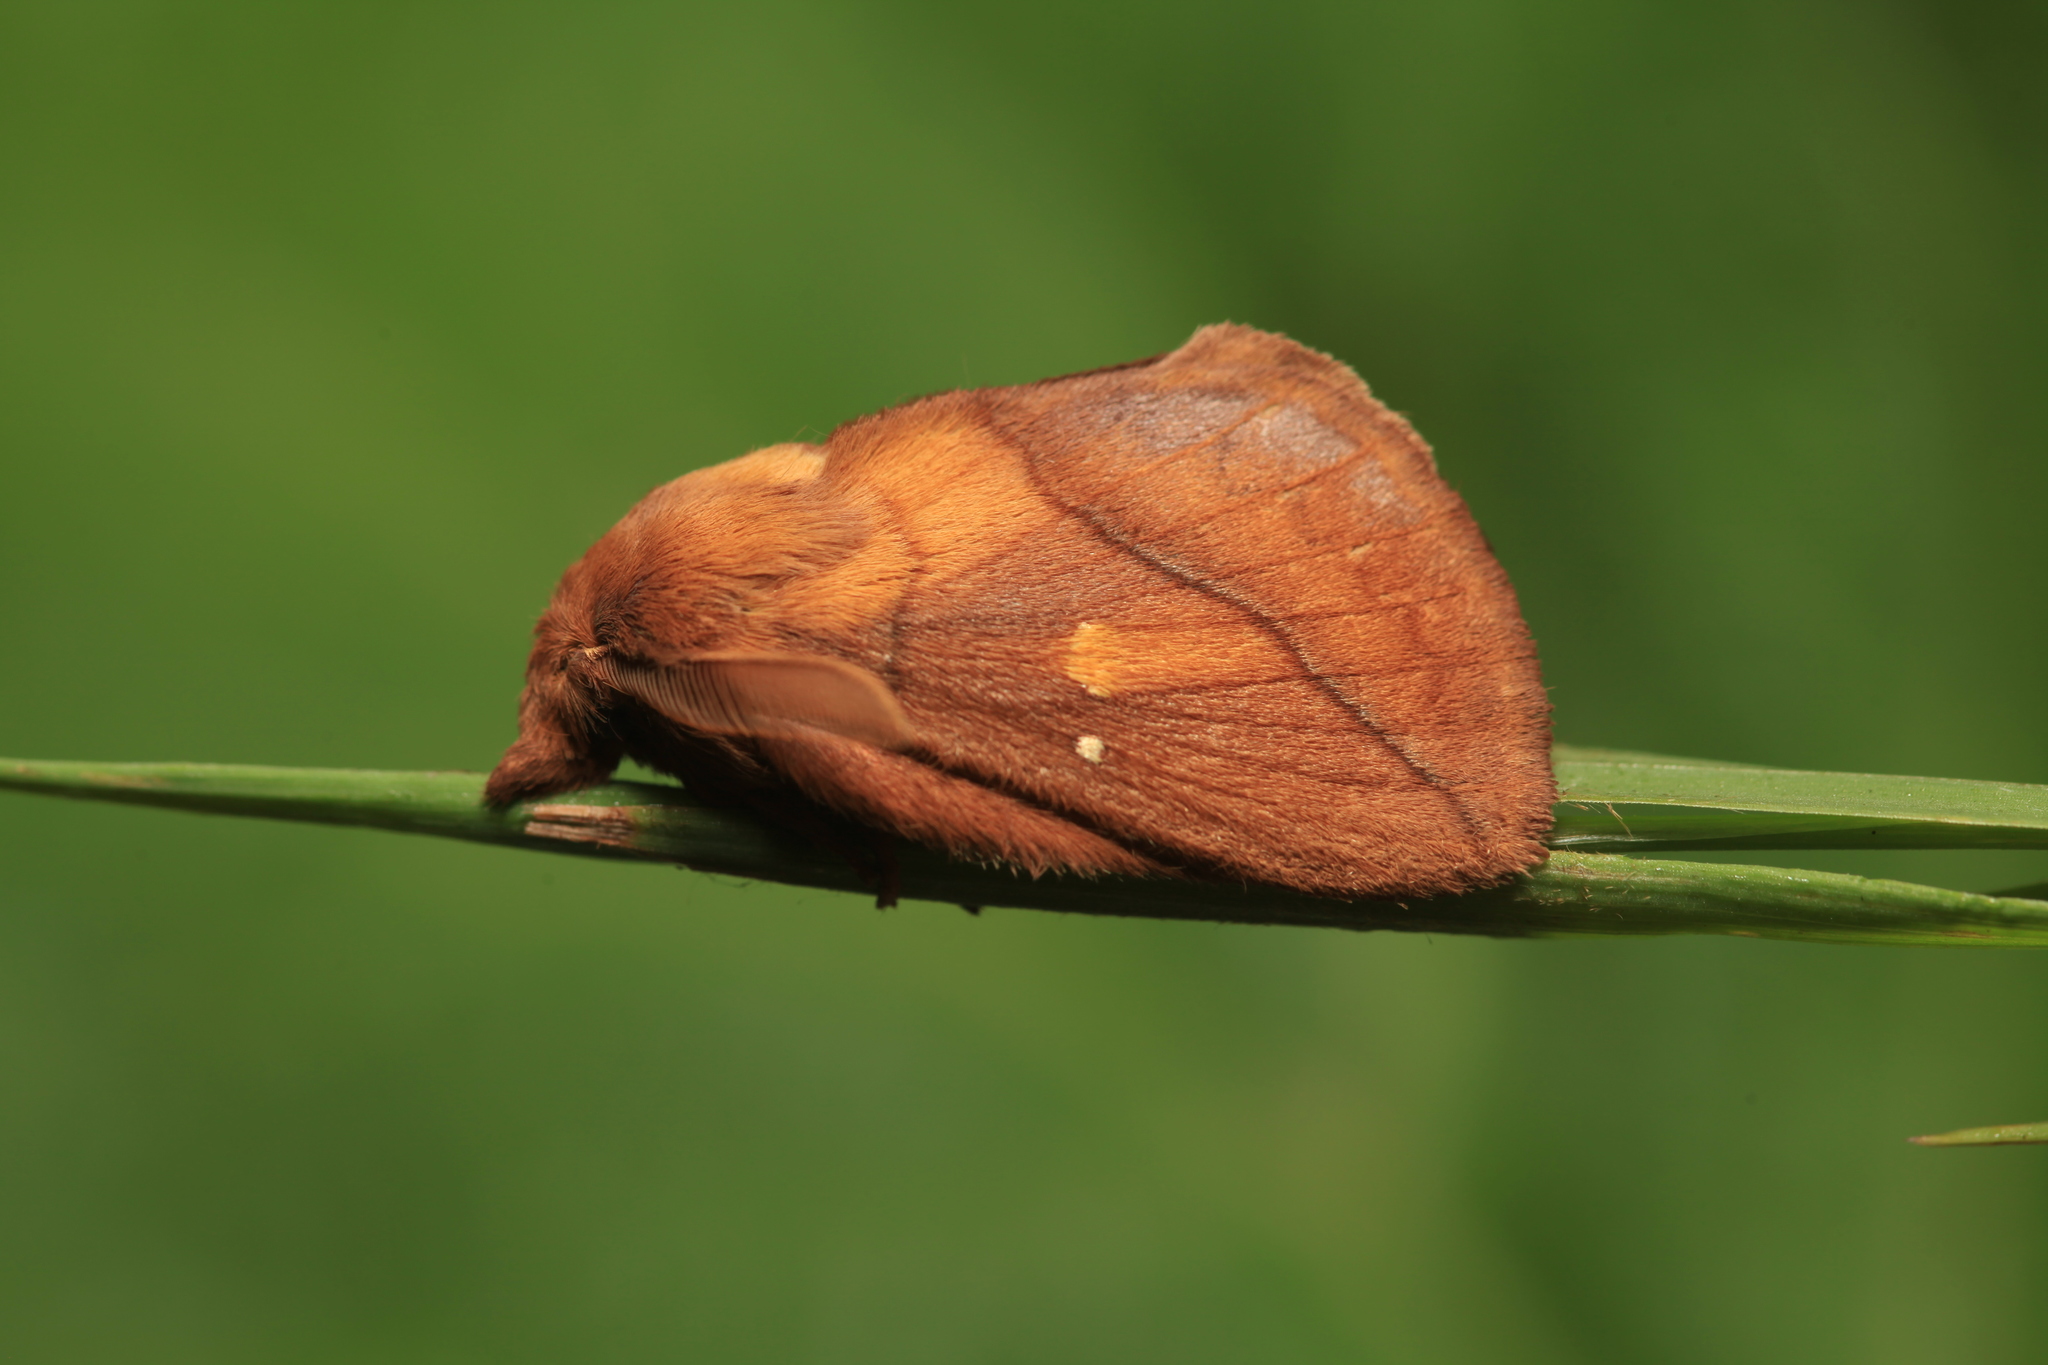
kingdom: Animalia
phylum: Arthropoda
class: Insecta
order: Lepidoptera
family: Lasiocampidae
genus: Euthrix
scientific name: Euthrix potatoria
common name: Drinker
